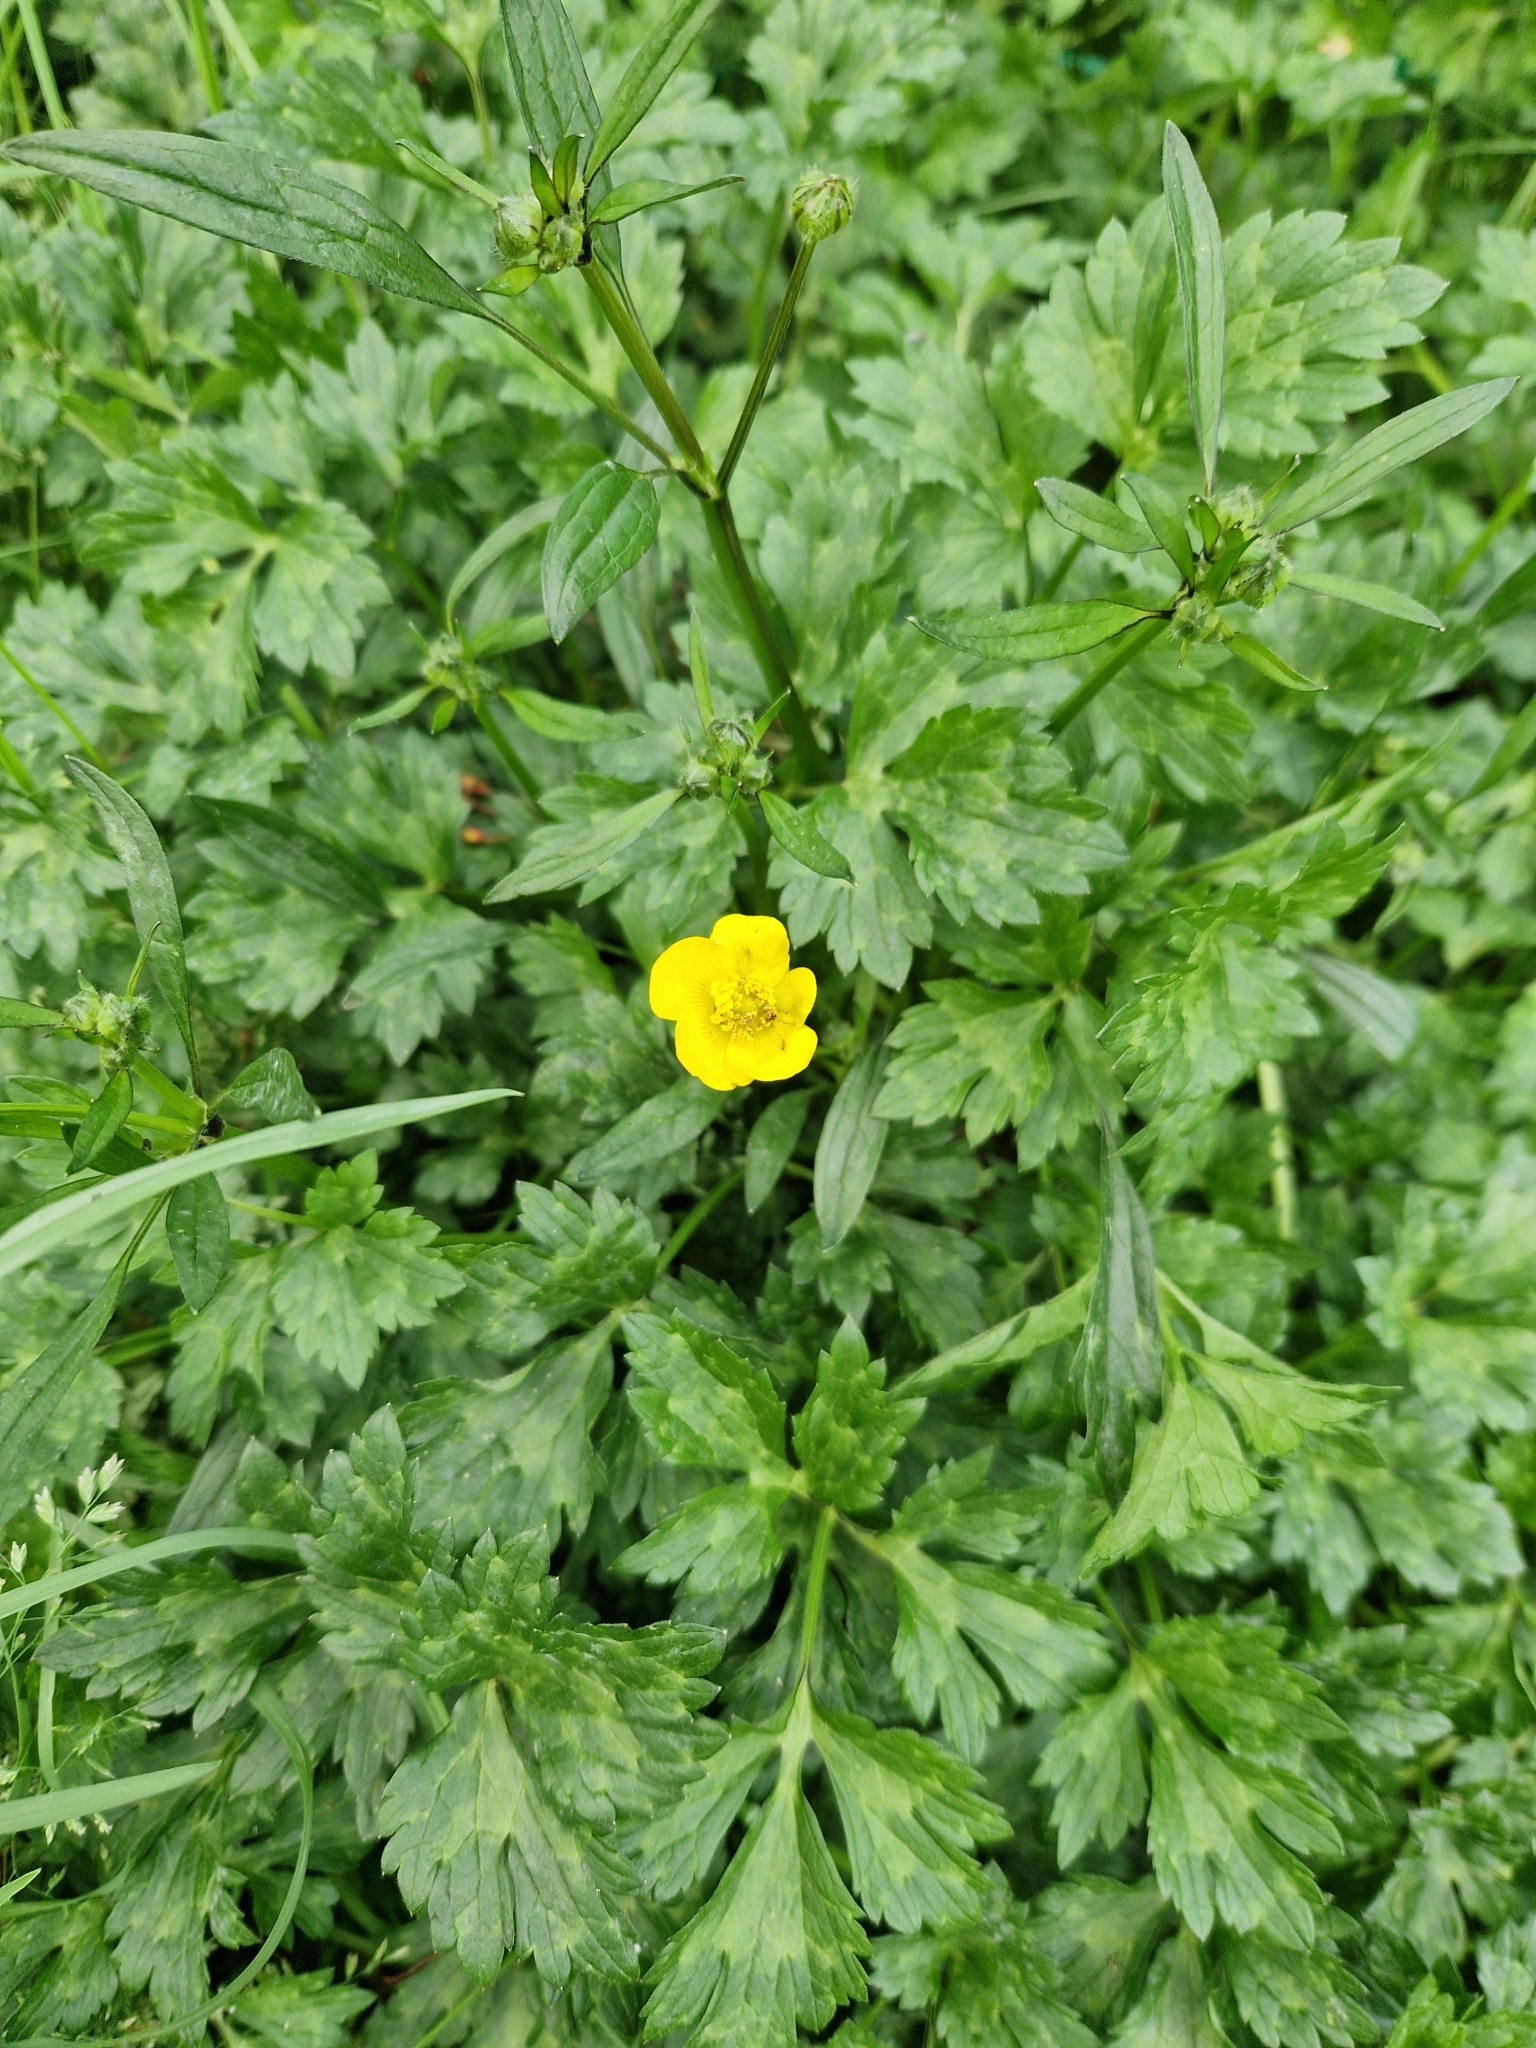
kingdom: Plantae
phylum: Tracheophyta
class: Magnoliopsida
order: Ranunculales
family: Ranunculaceae
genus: Ranunculus
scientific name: Ranunculus repens
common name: Creeping buttercup
